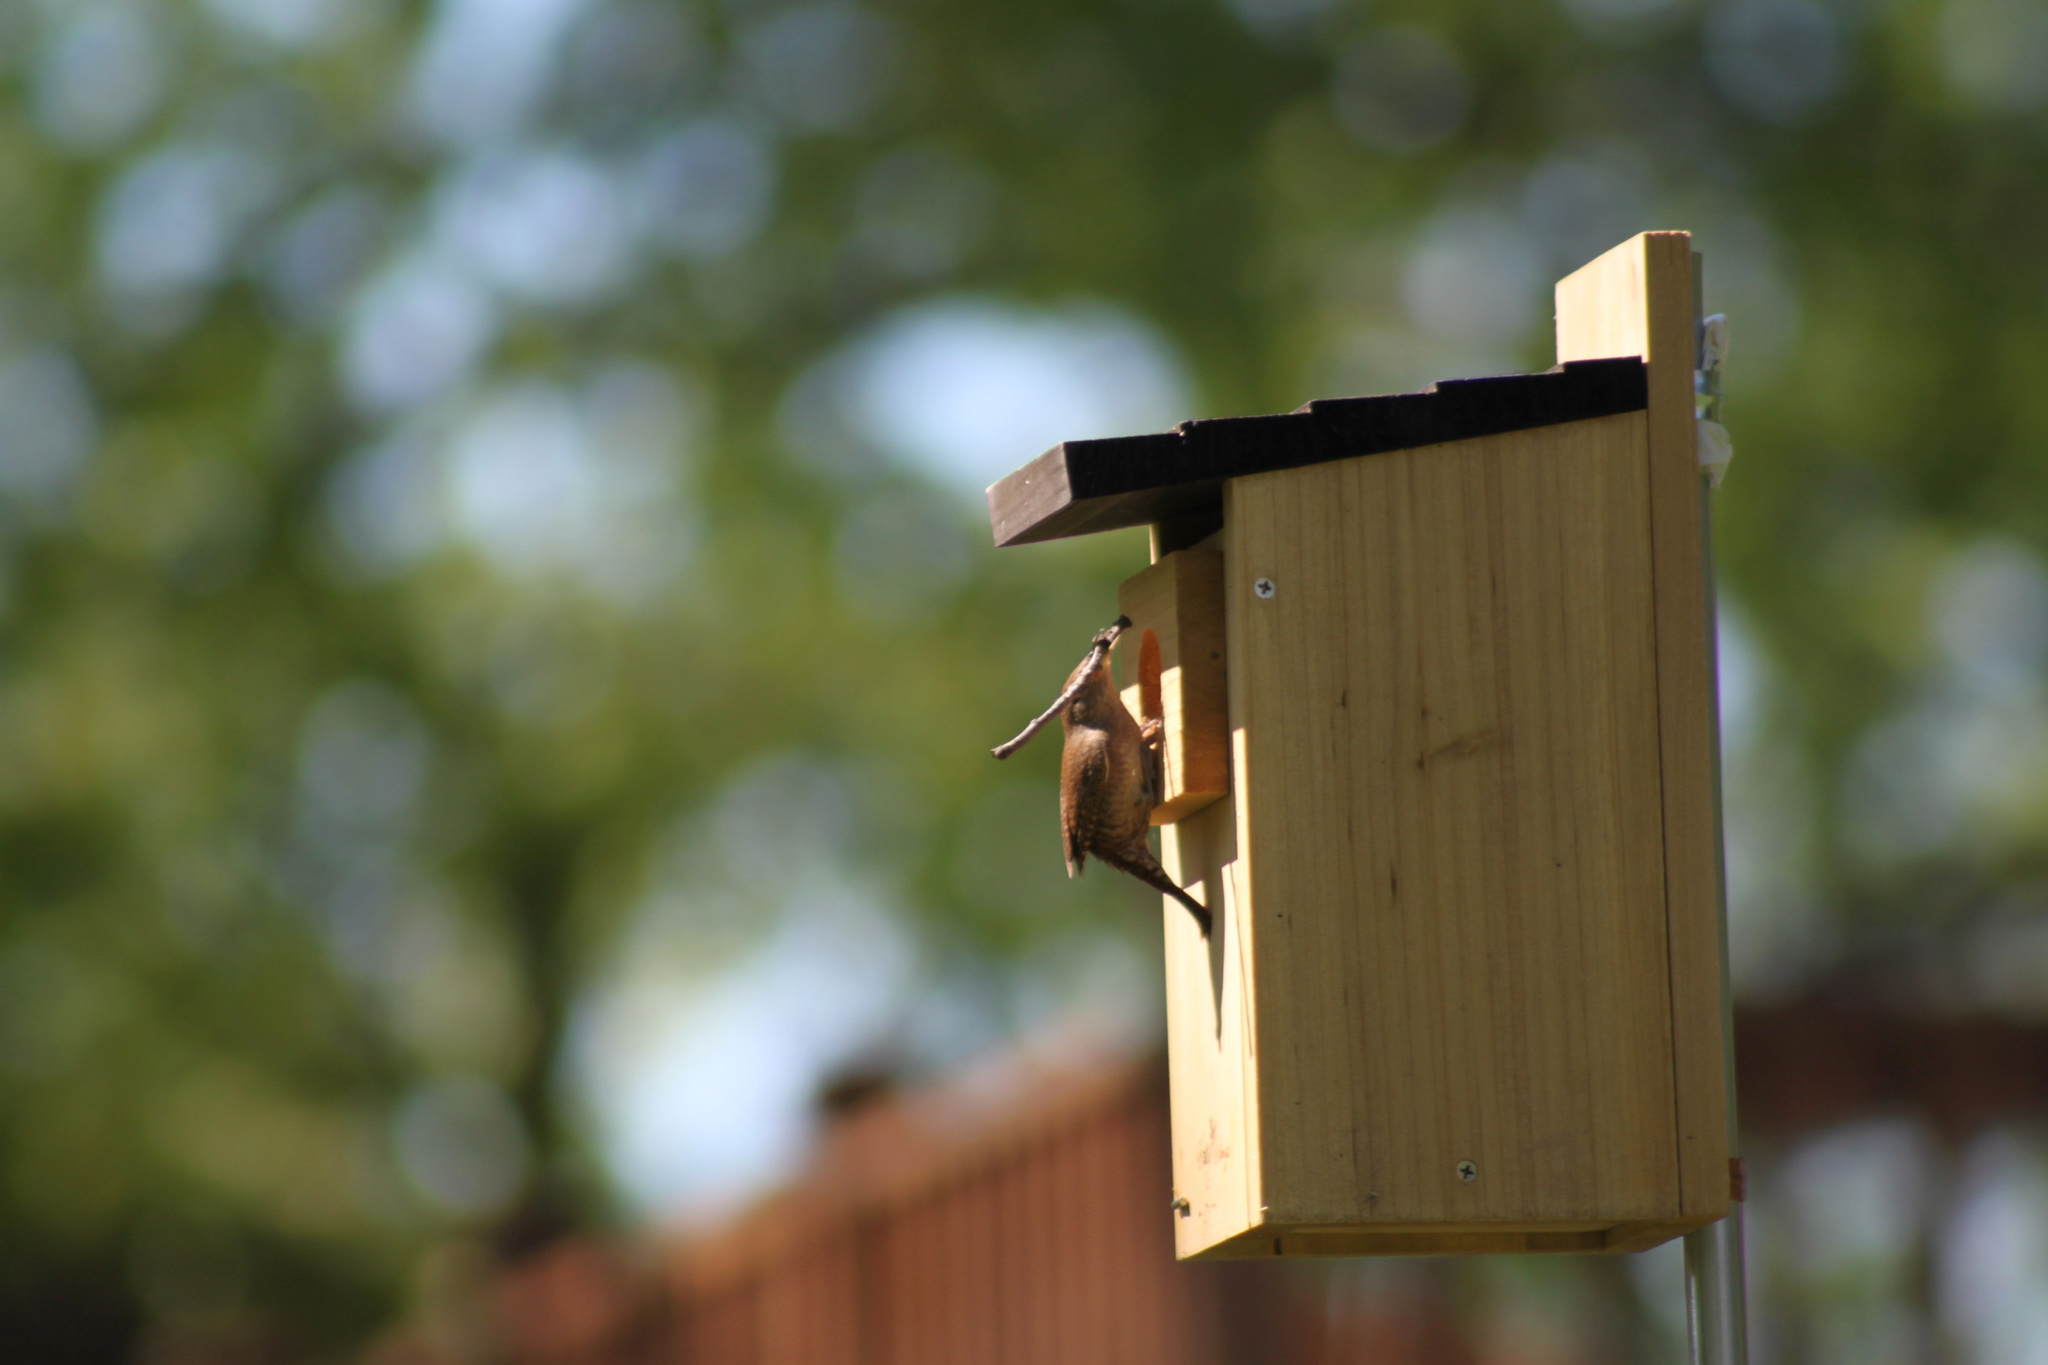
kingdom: Animalia
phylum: Chordata
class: Aves
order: Passeriformes
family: Troglodytidae
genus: Troglodytes
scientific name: Troglodytes aedon
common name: House wren
